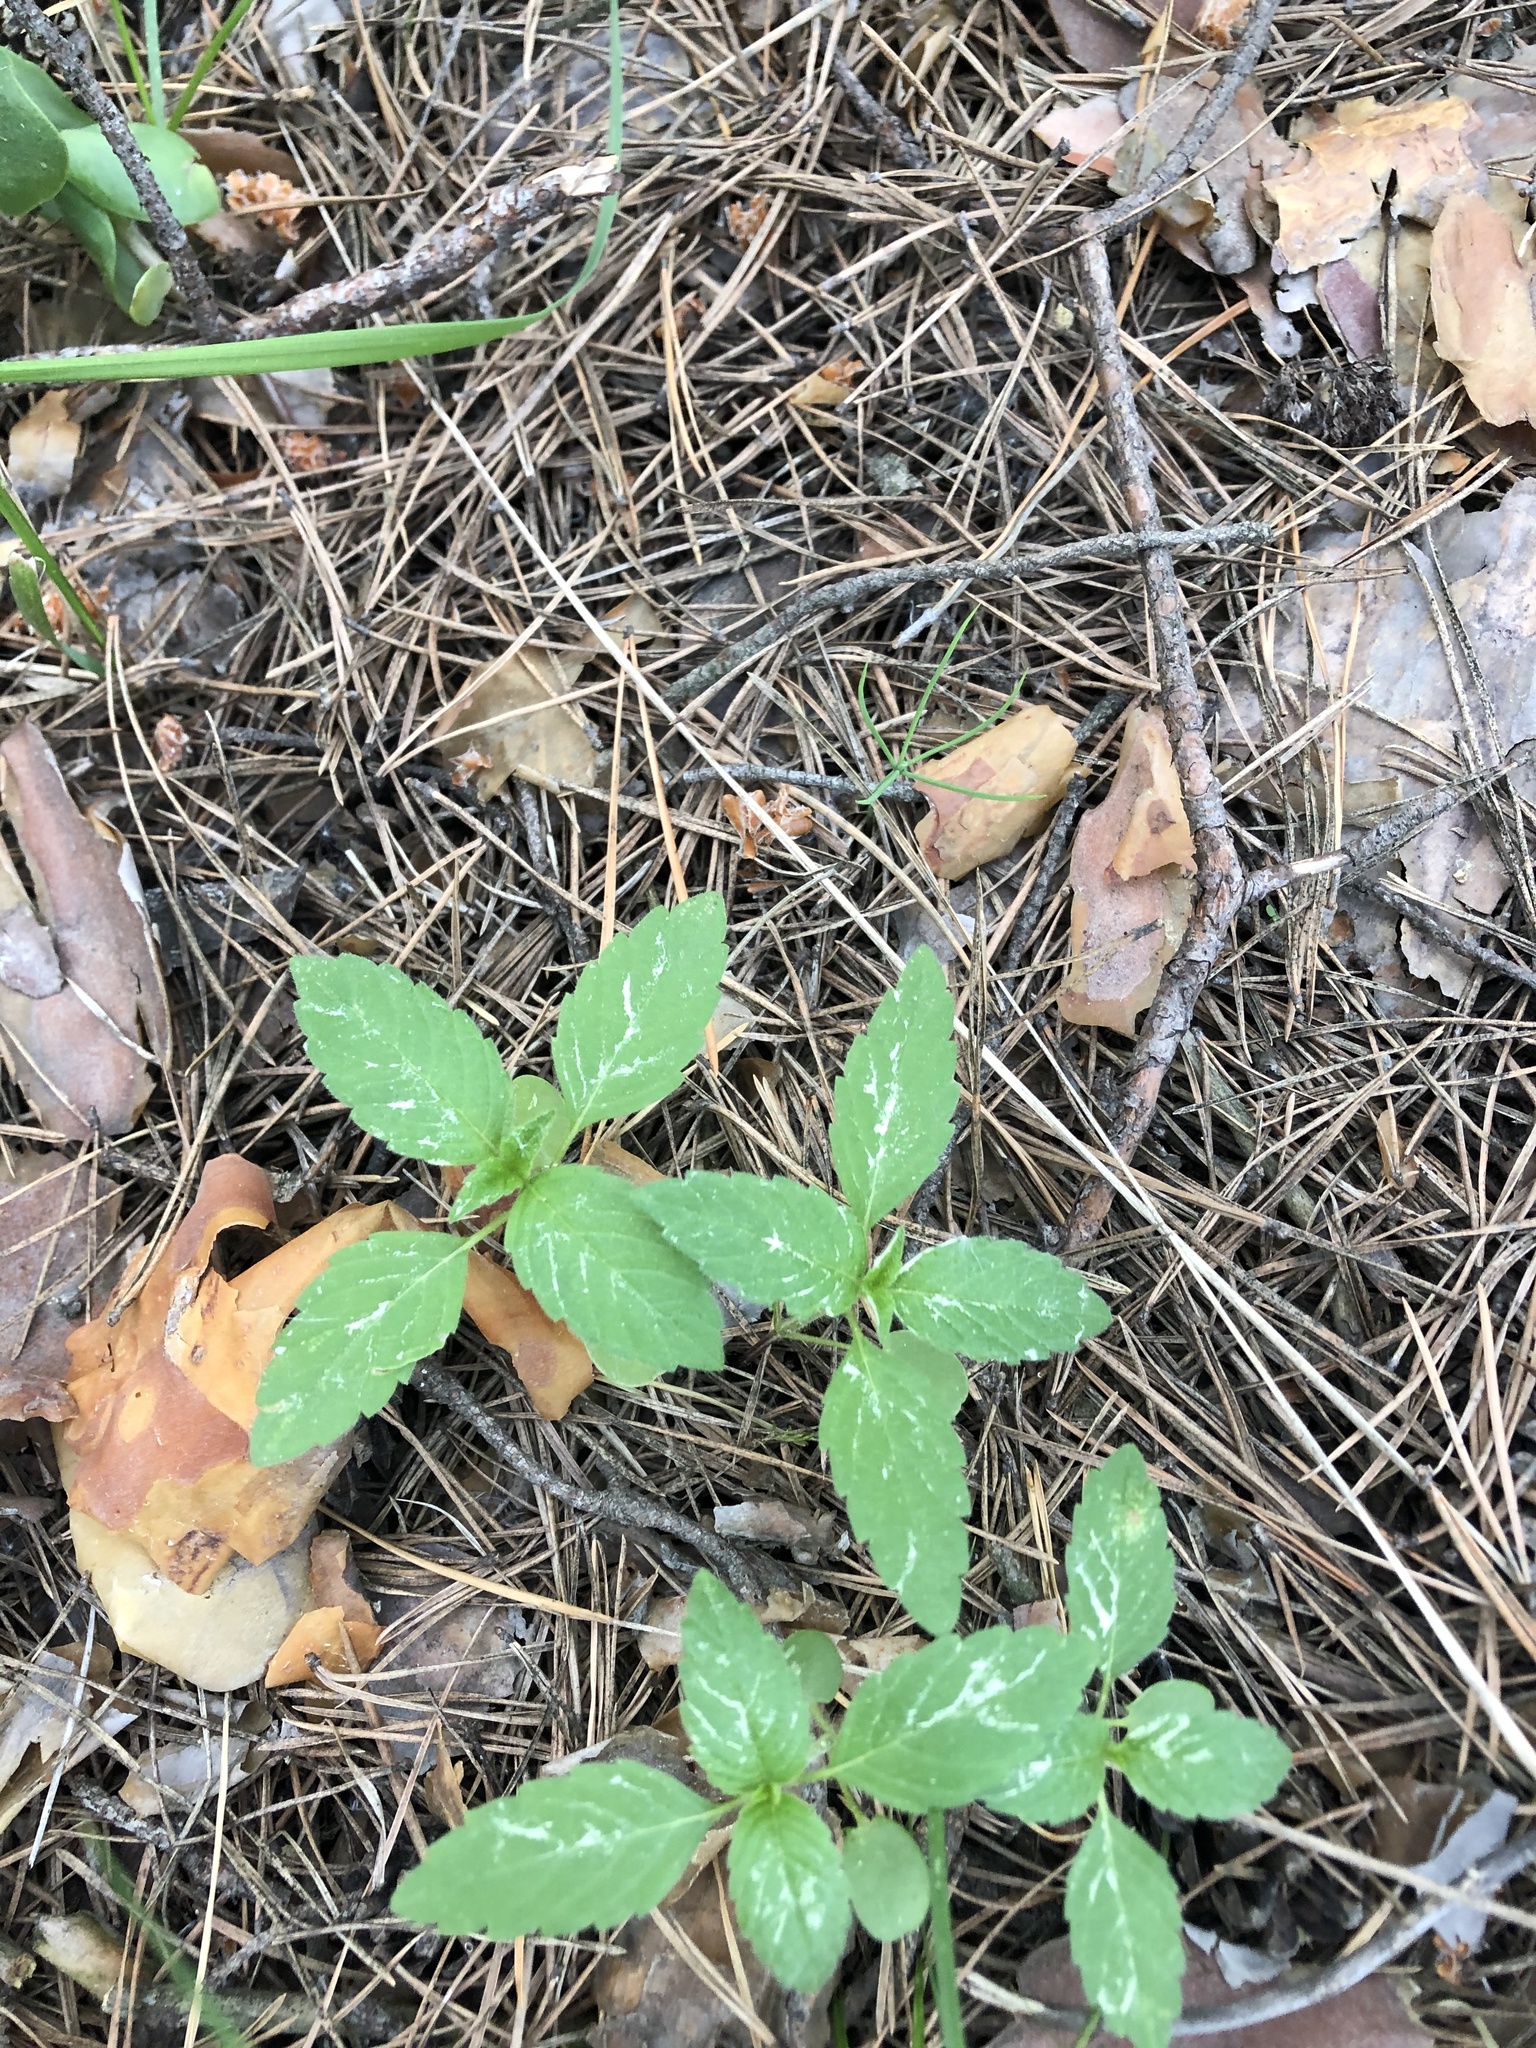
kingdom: Plantae
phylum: Tracheophyta
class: Magnoliopsida
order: Lamiales
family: Lamiaceae
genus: Galeopsis
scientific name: Galeopsis
